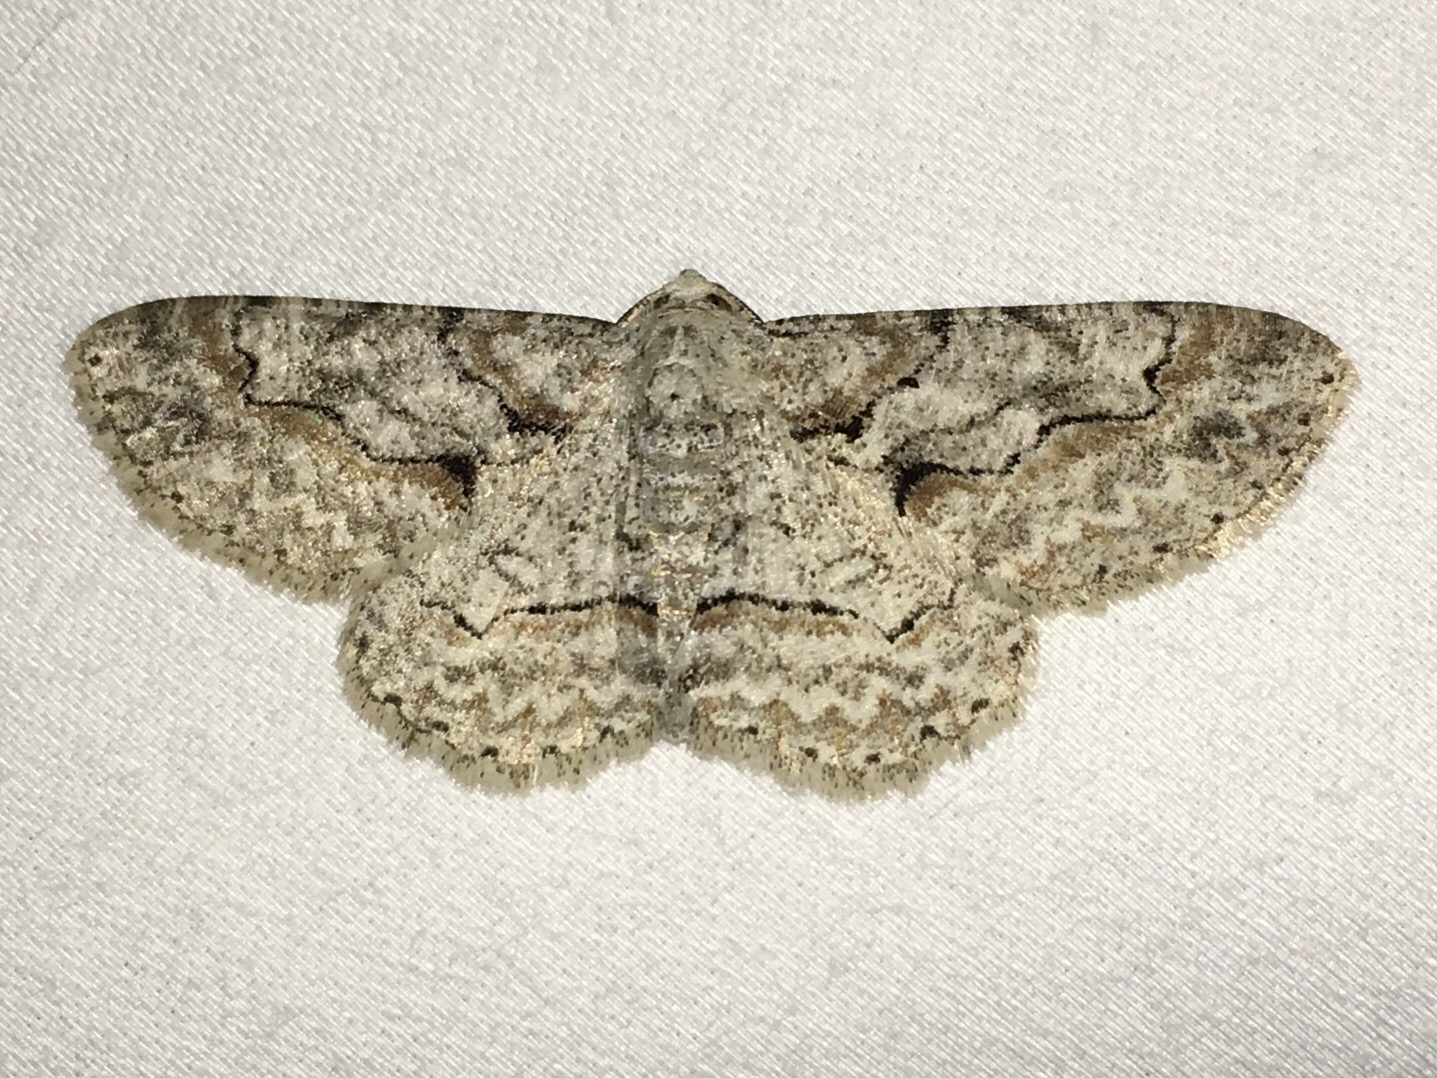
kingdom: Animalia
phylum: Arthropoda
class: Insecta
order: Lepidoptera
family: Geometridae
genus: Iridopsis
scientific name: Iridopsis defectaria
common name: Brown-shaded gray
